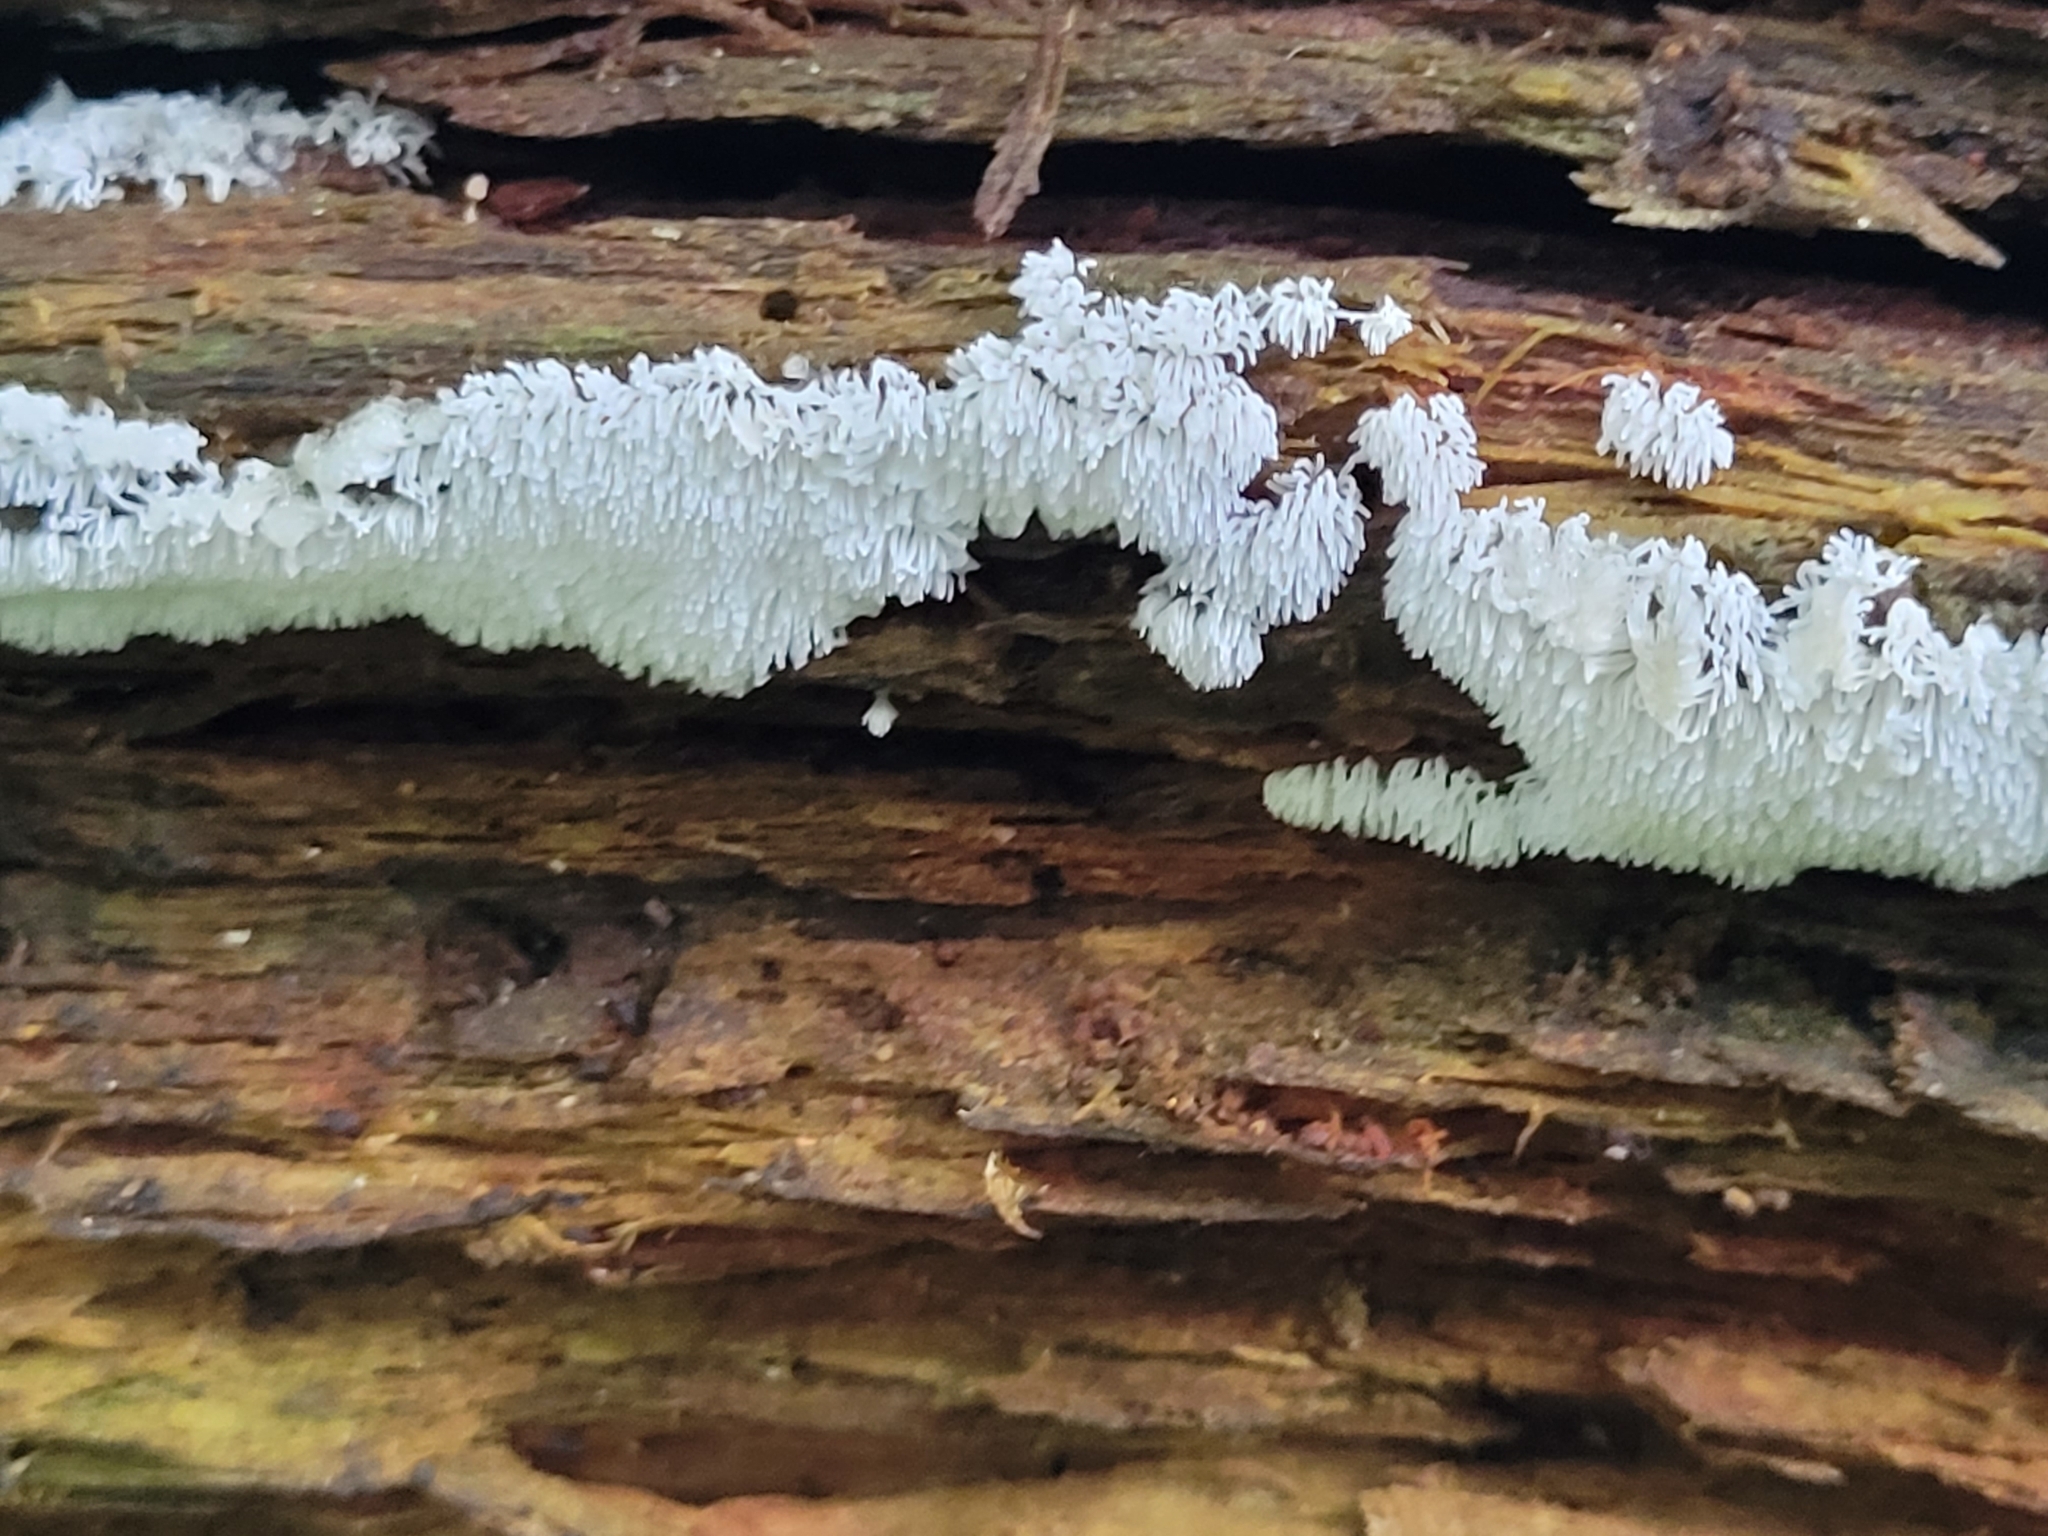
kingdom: Protozoa
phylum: Mycetozoa
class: Protosteliomycetes
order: Ceratiomyxales
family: Ceratiomyxaceae
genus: Ceratiomyxa
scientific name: Ceratiomyxa fruticulosa
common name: Honeycomb coral slime mold
